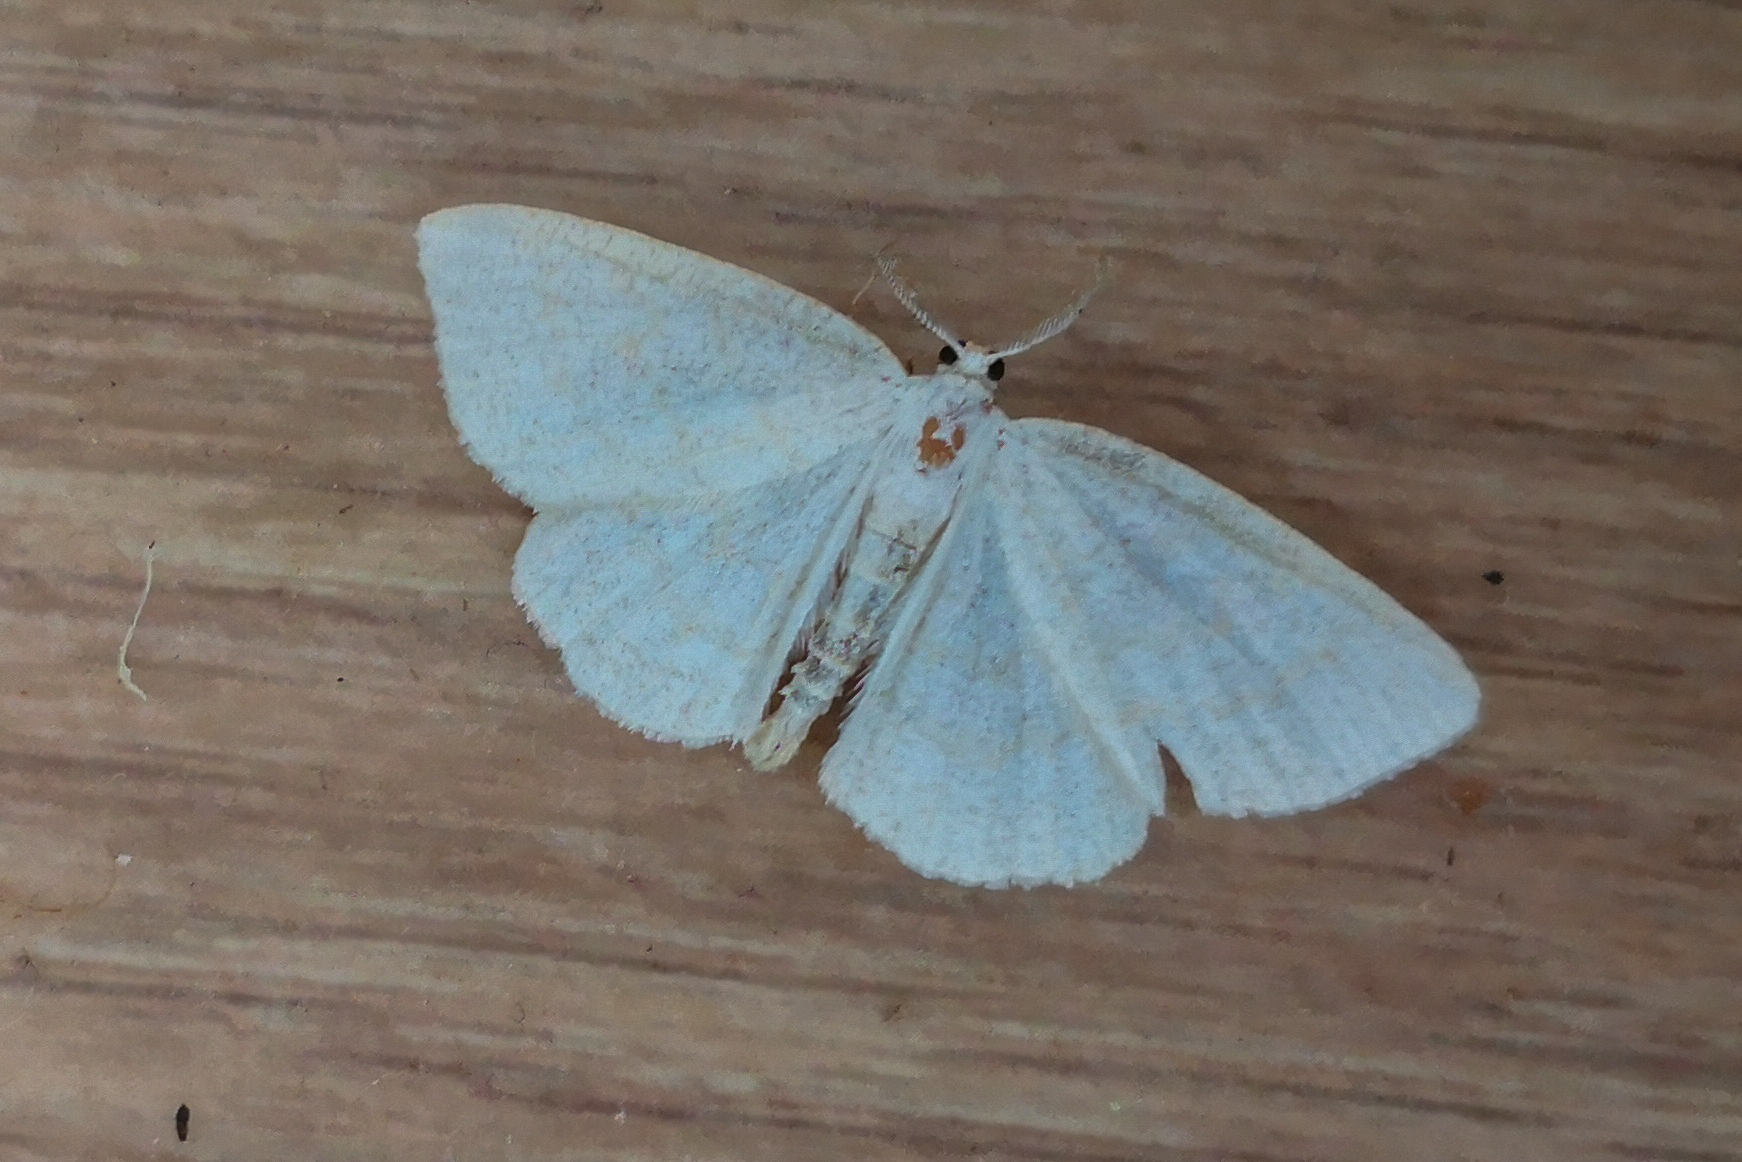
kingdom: Animalia
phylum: Arthropoda
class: Insecta
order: Lepidoptera
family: Geometridae
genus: Cabera
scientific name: Cabera exanthemata
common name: Common wave
